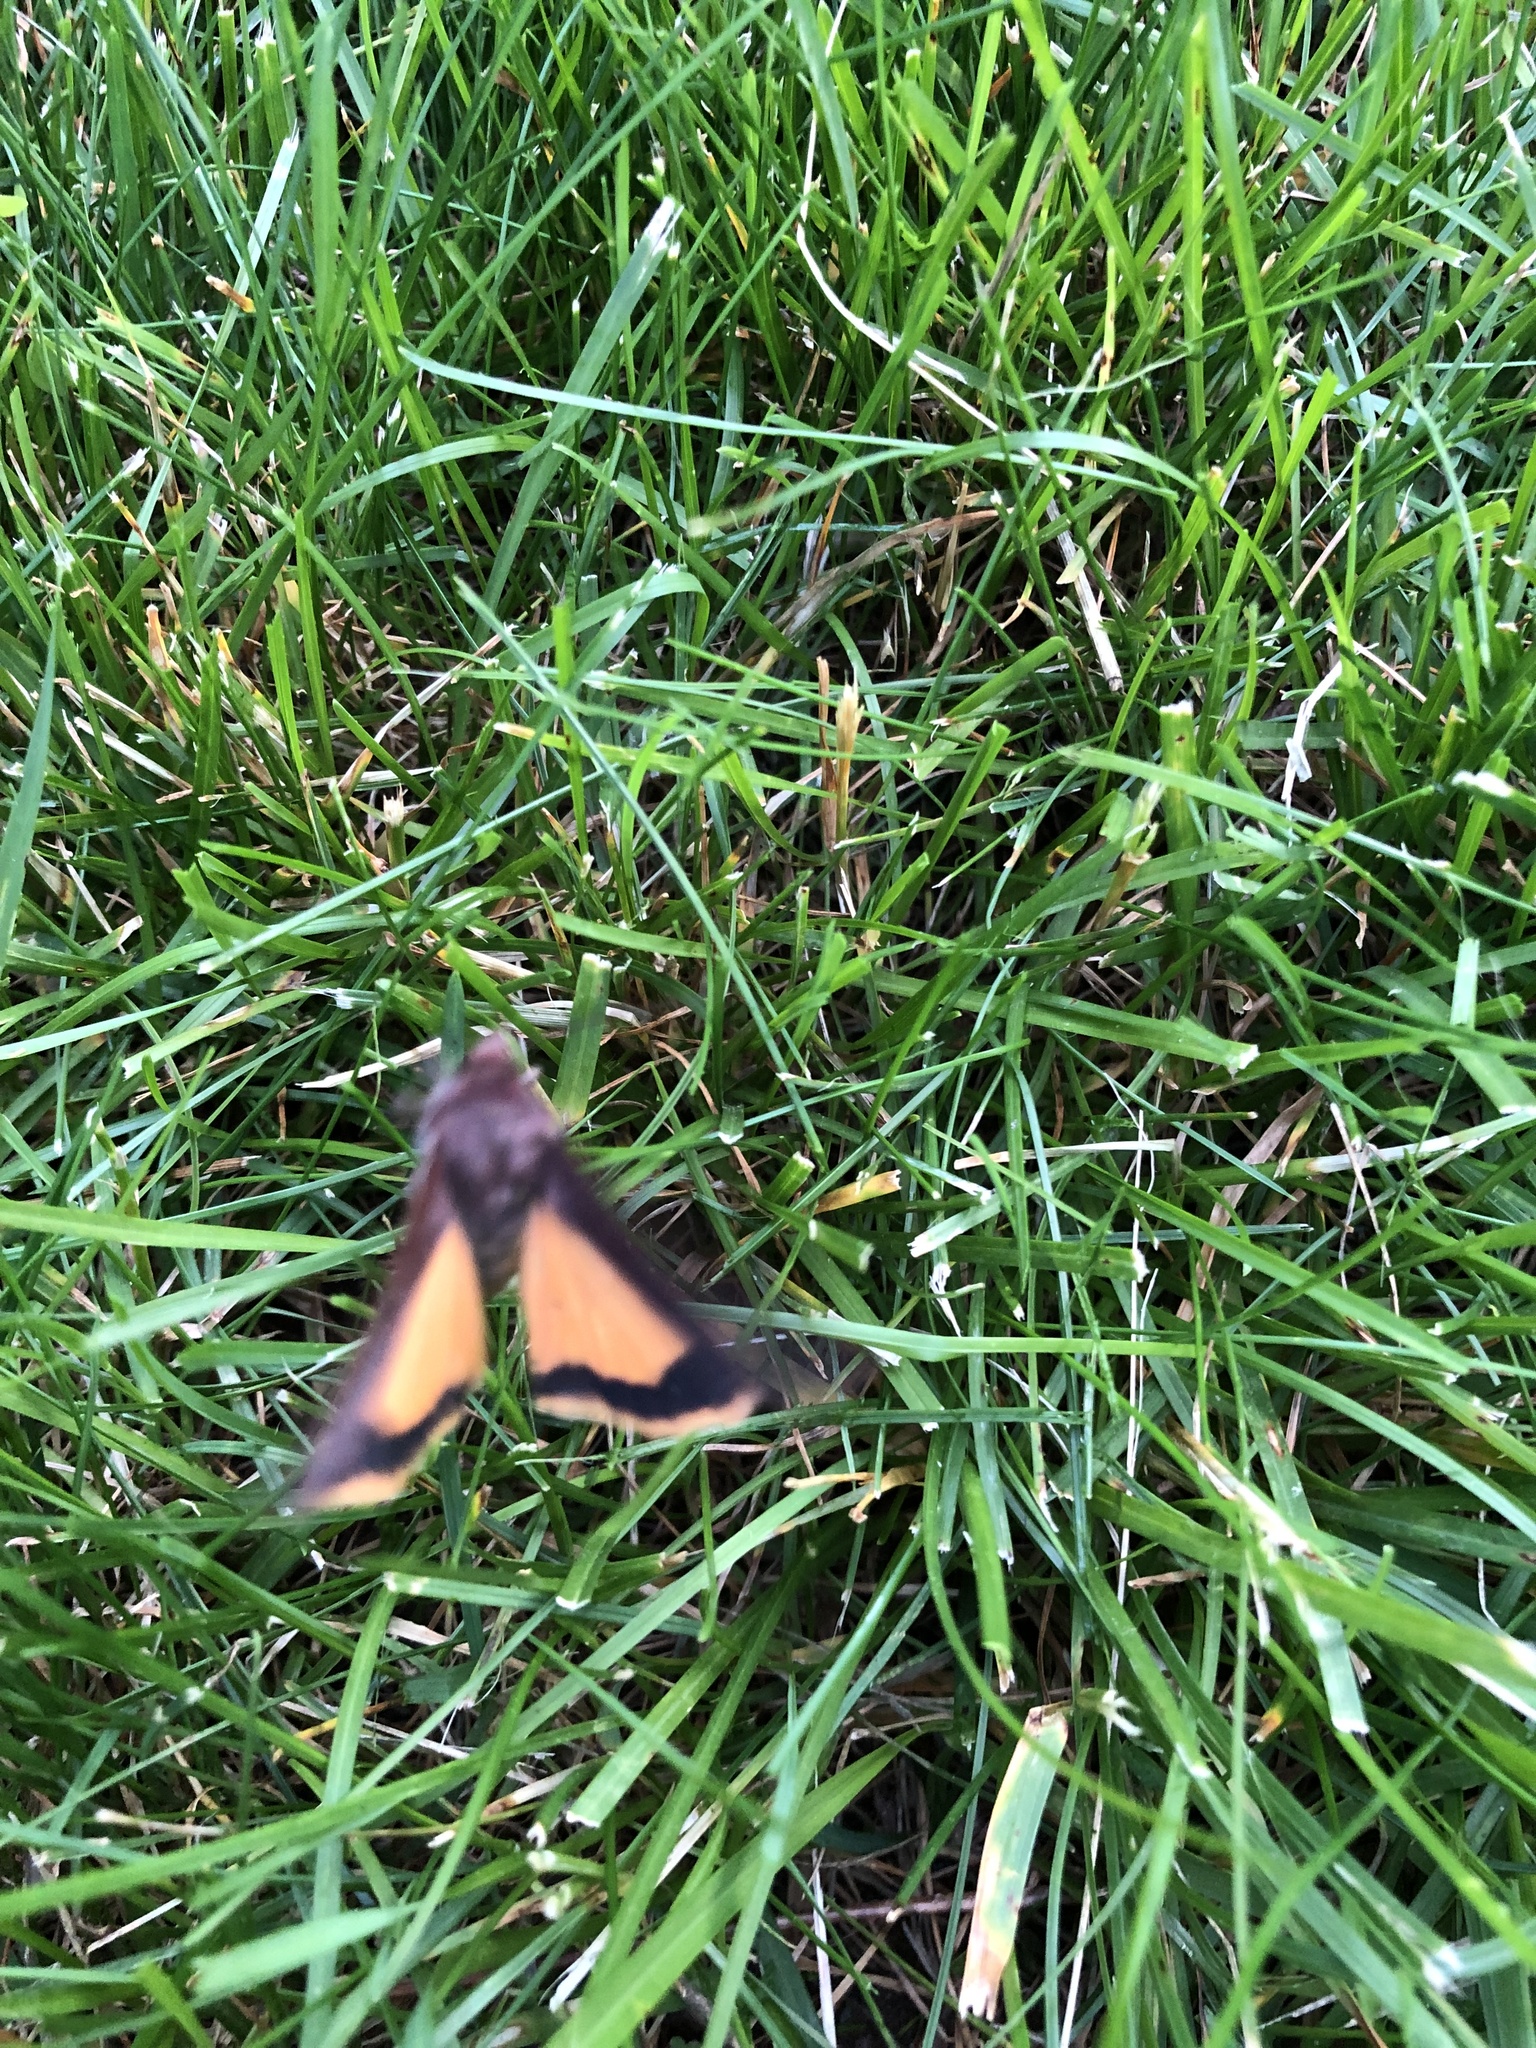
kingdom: Animalia
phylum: Arthropoda
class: Insecta
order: Lepidoptera
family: Noctuidae
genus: Noctua
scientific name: Noctua pronuba
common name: Large yellow underwing
